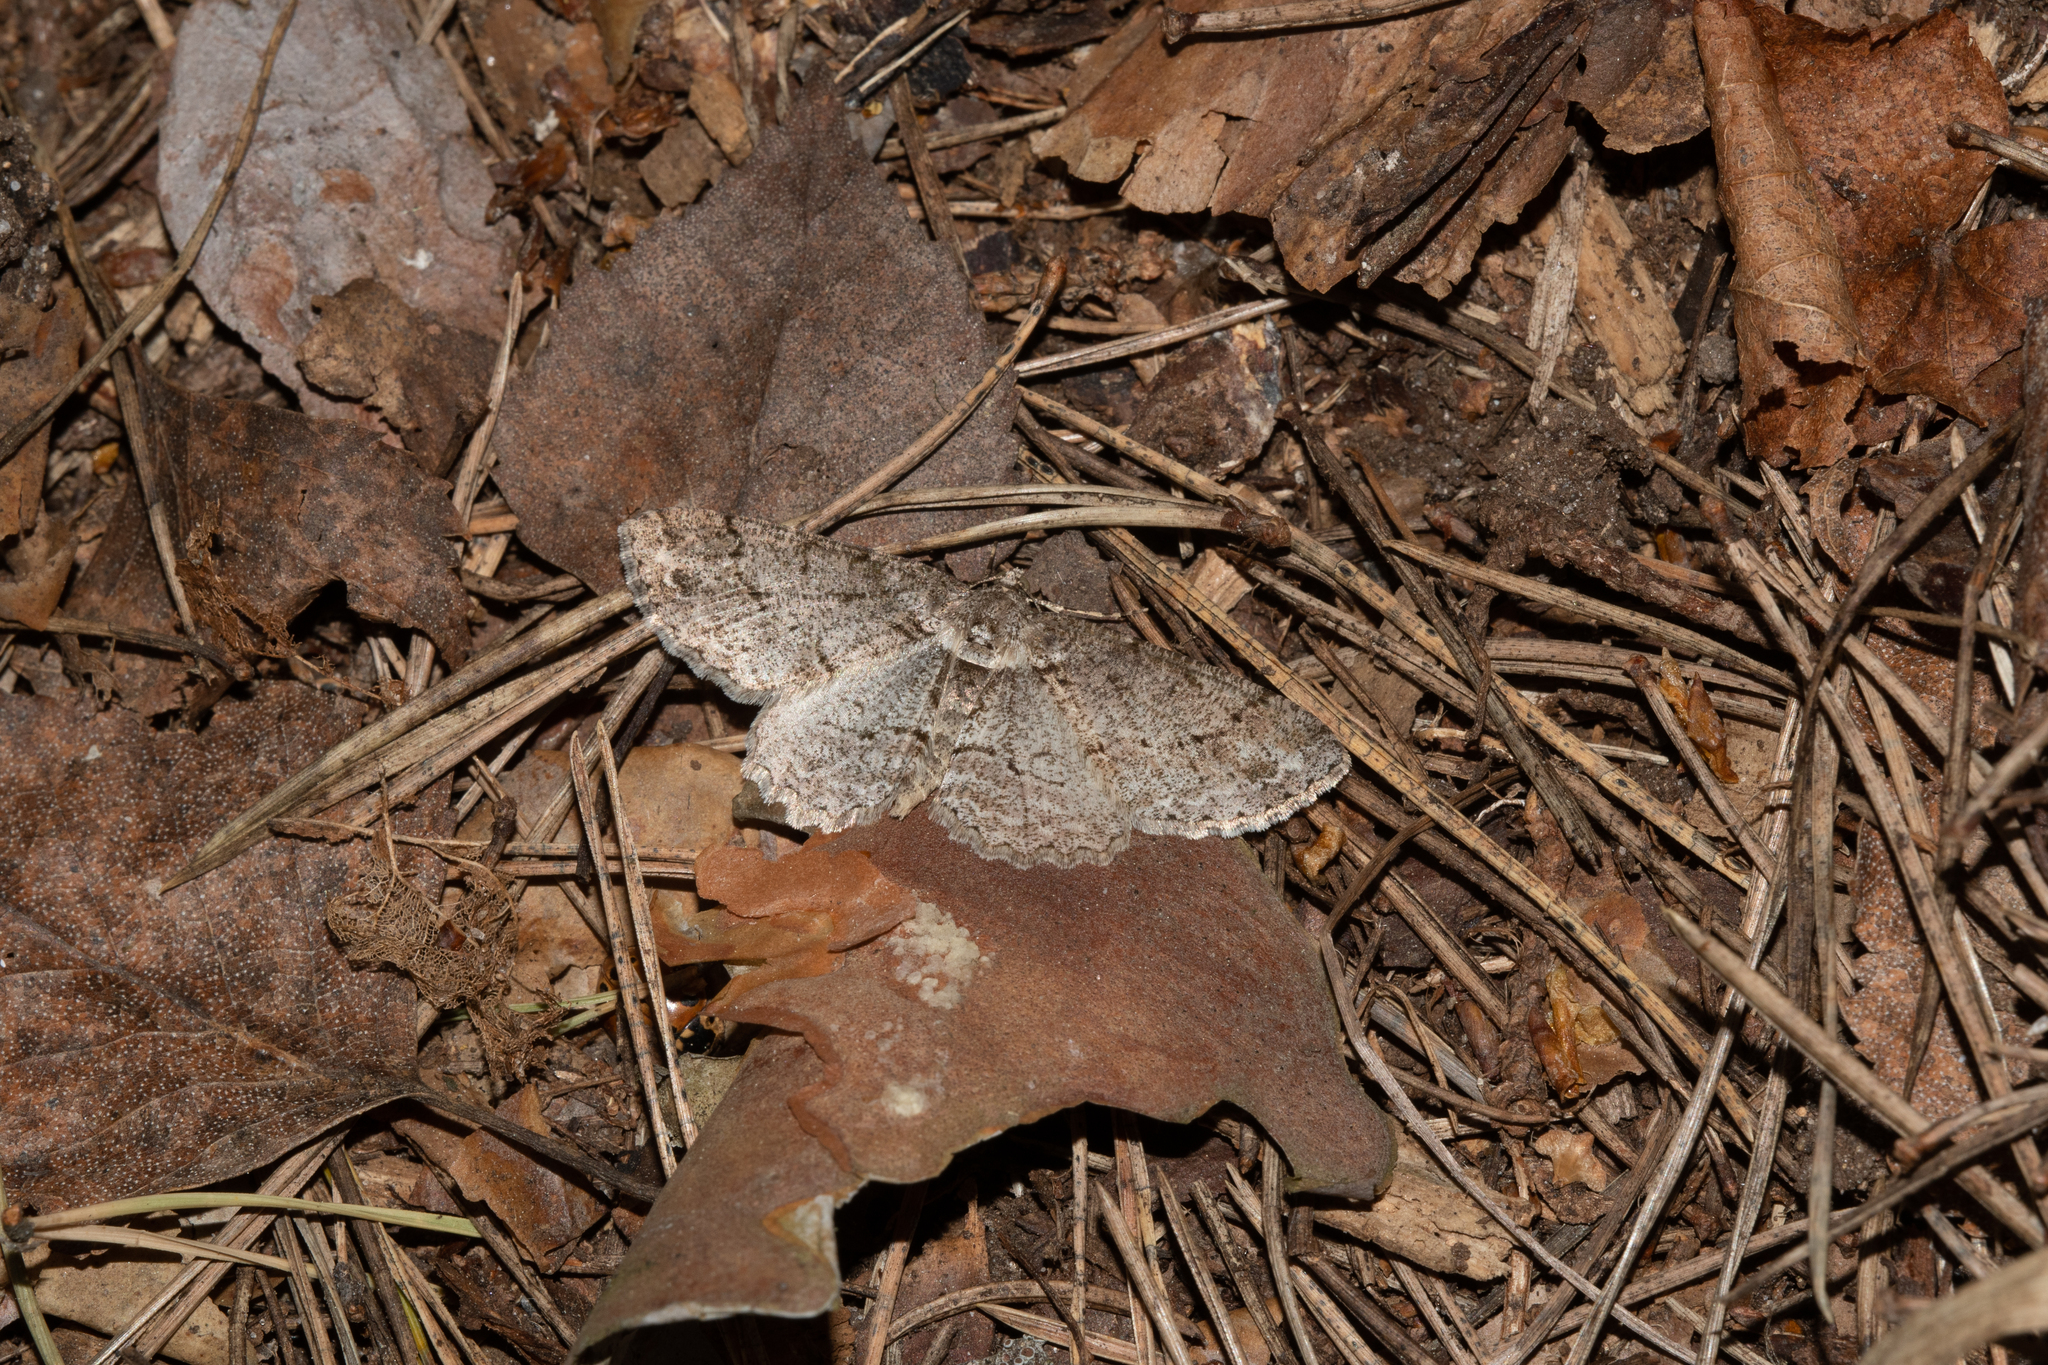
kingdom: Animalia
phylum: Arthropoda
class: Insecta
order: Lepidoptera
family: Geometridae
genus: Paradarisa
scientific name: Paradarisa consonaria
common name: Square spot
